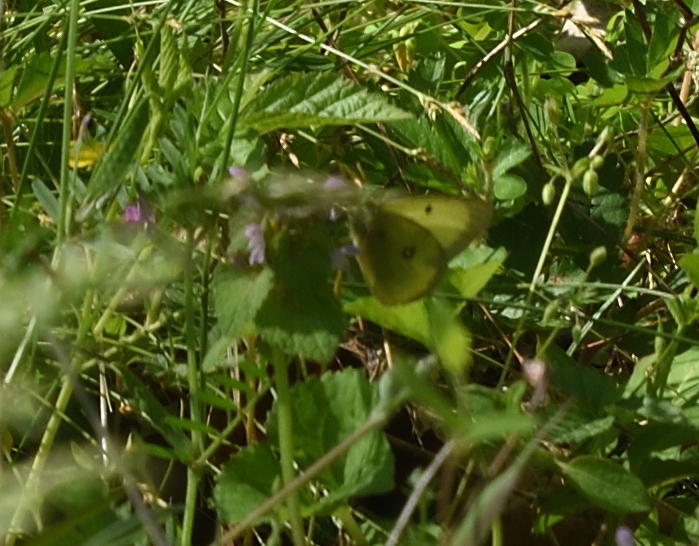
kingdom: Animalia
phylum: Arthropoda
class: Insecta
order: Lepidoptera
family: Pieridae
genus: Colias
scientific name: Colias philodice
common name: Clouded sulphur
